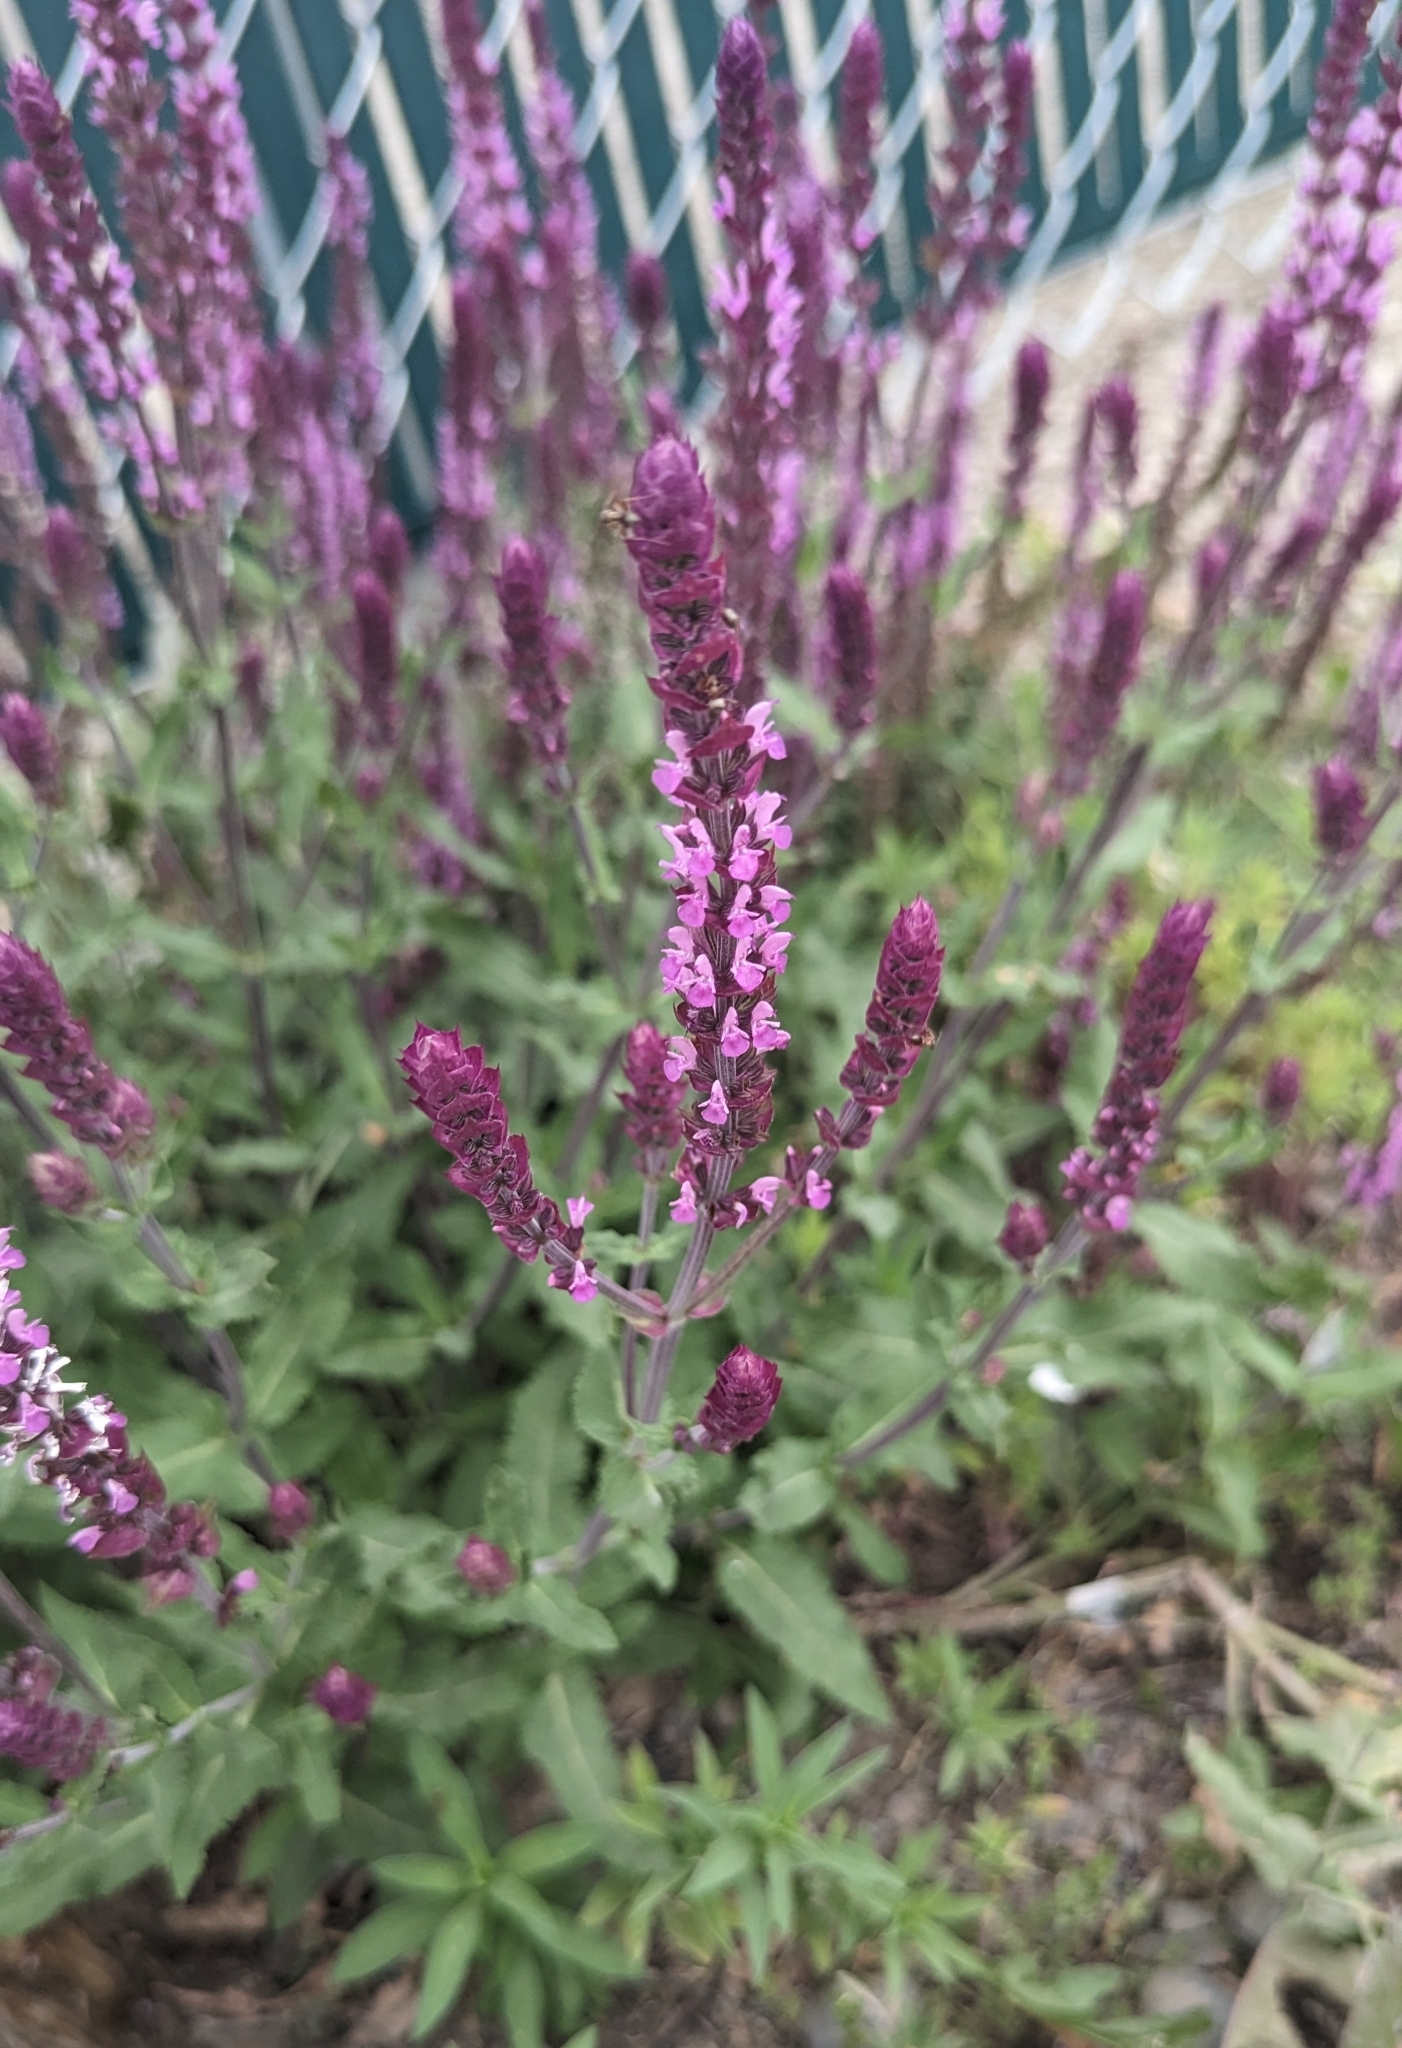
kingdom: Plantae
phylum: Tracheophyta
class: Magnoliopsida
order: Lamiales
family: Lamiaceae
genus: Salvia
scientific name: Salvia nemorosa
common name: Balkan clary
